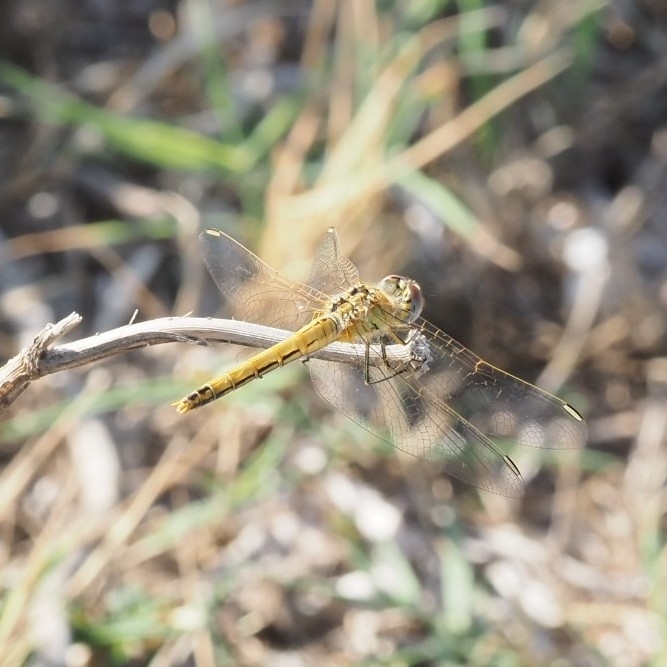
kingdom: Animalia
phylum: Arthropoda
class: Insecta
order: Odonata
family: Libellulidae
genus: Sympetrum
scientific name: Sympetrum fonscolombii
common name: Red-veined darter
